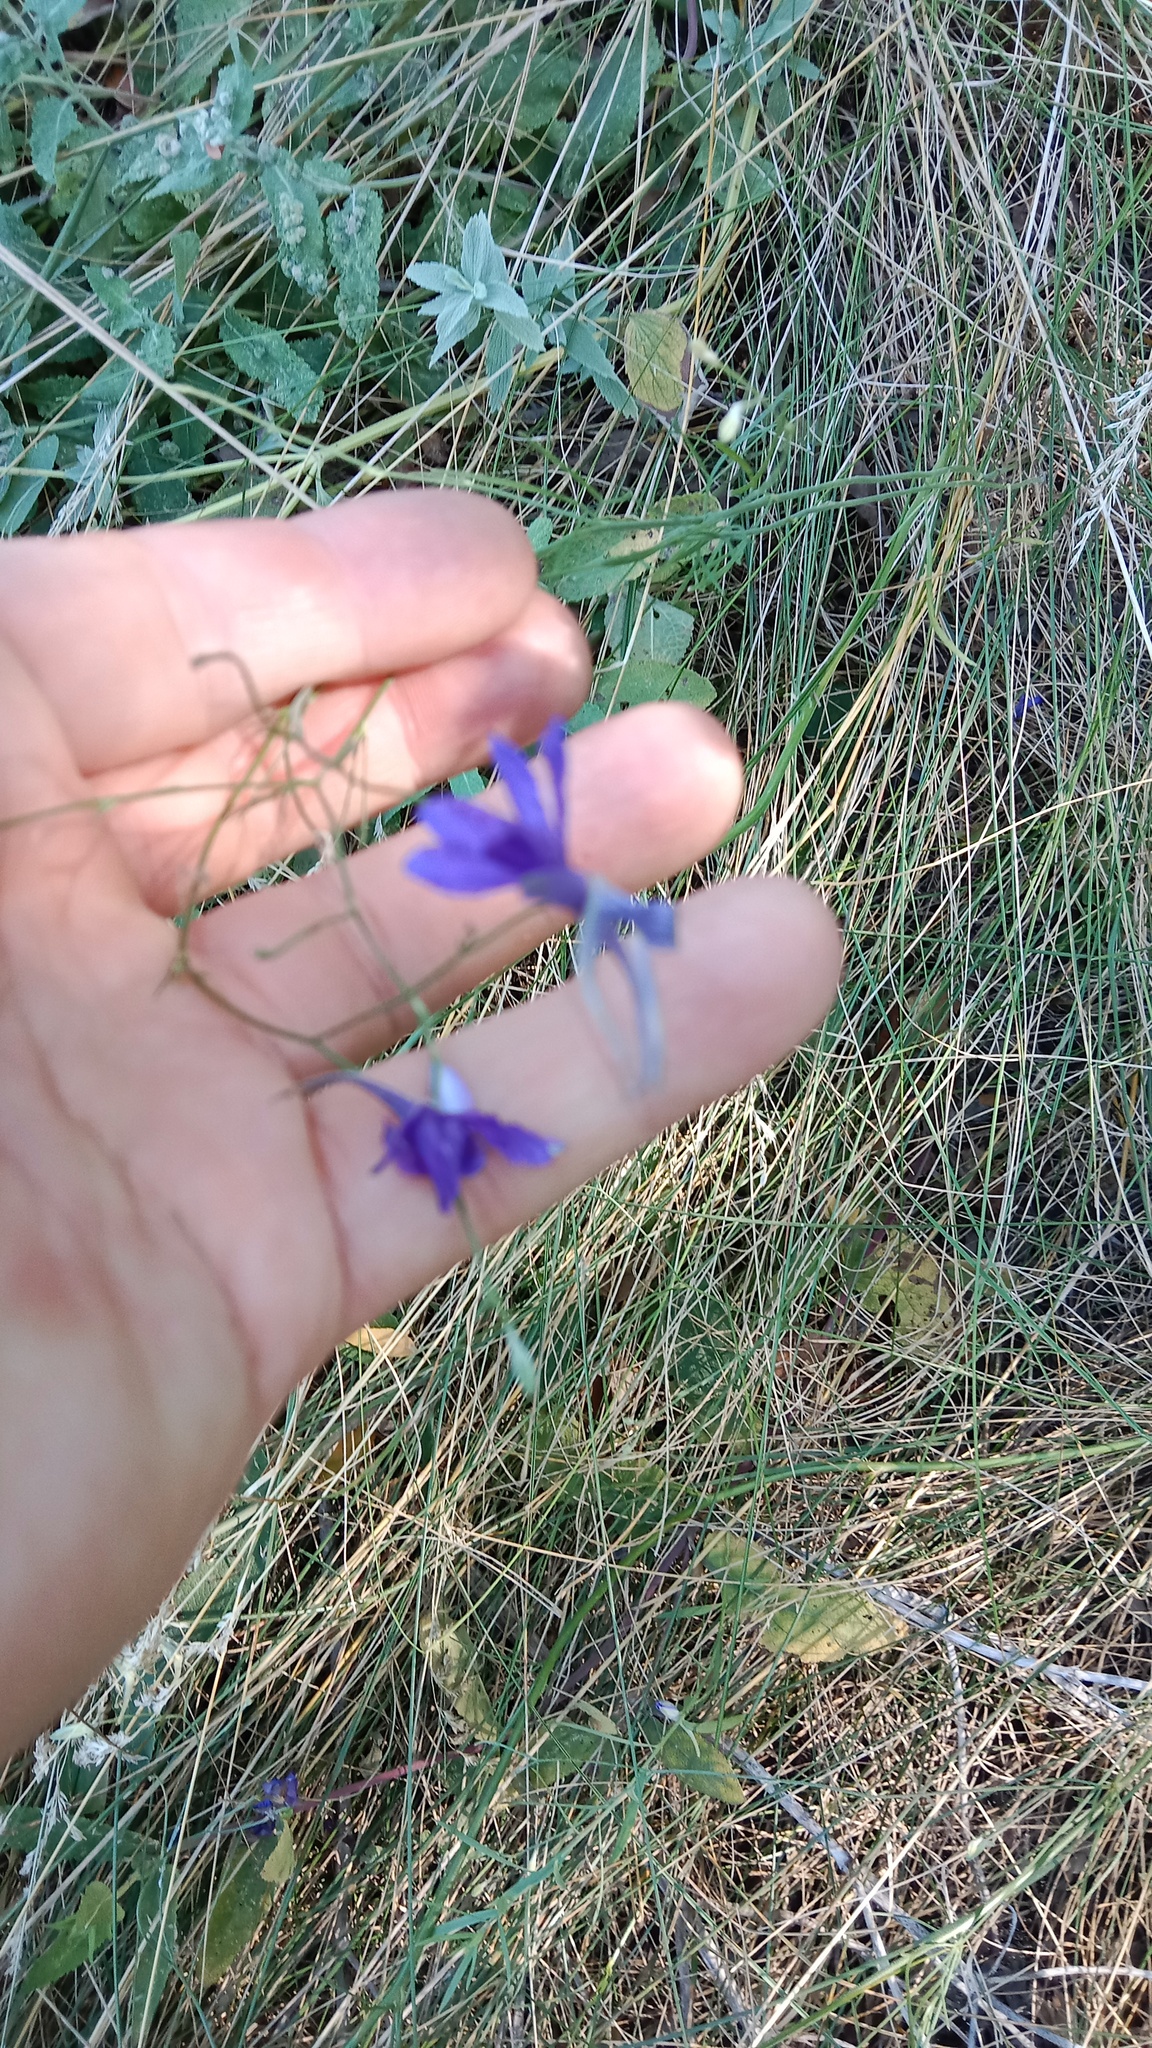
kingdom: Plantae
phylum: Tracheophyta
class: Magnoliopsida
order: Ranunculales
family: Ranunculaceae
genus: Delphinium
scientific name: Delphinium consolida
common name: Branching larkspur
